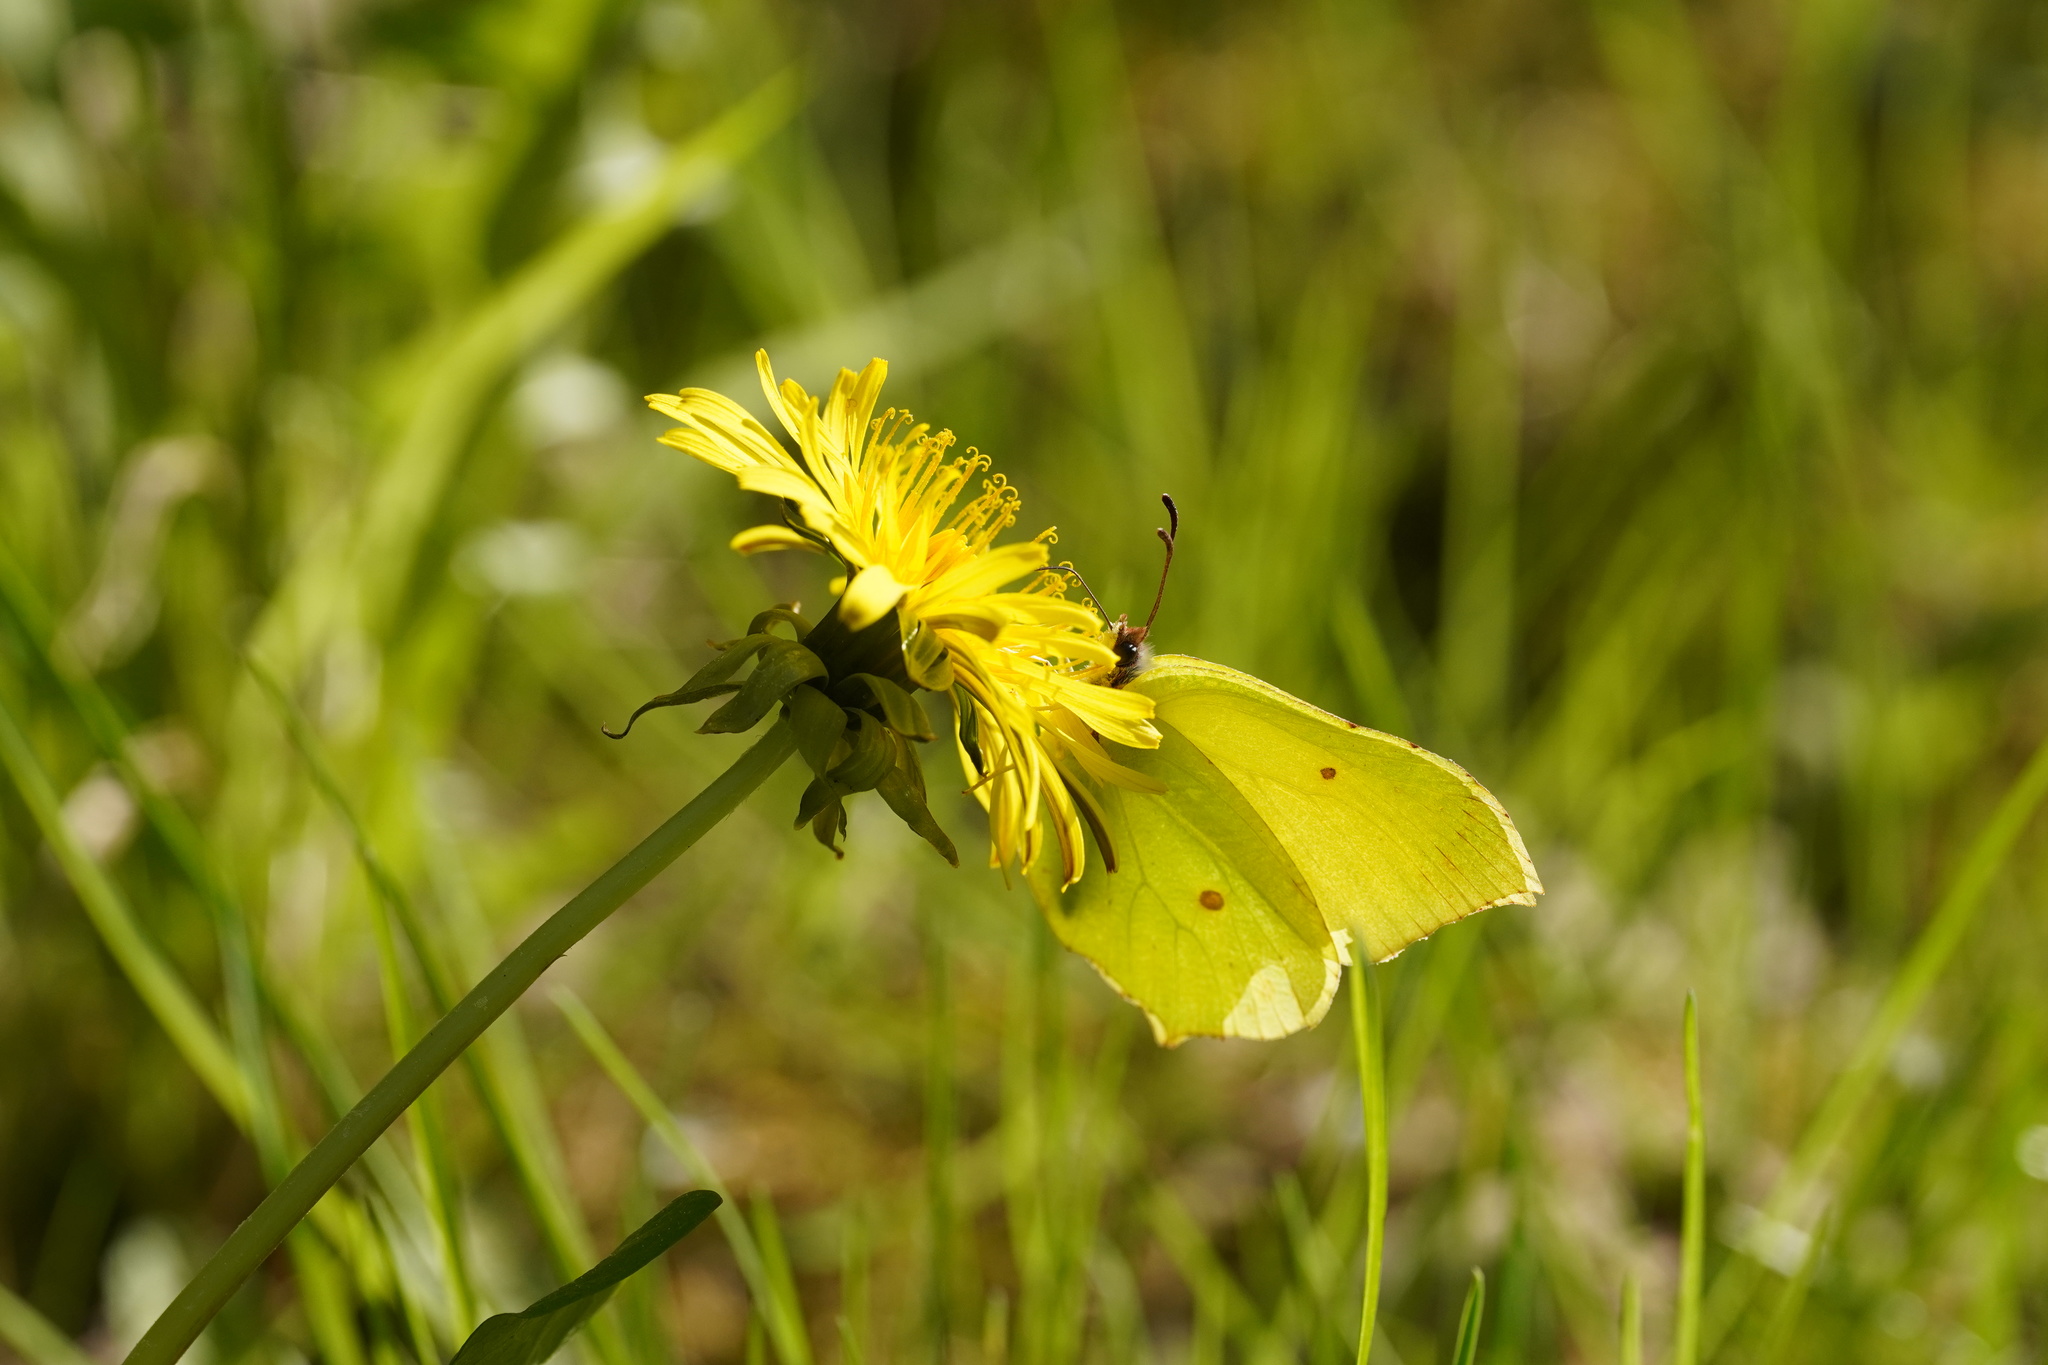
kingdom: Animalia
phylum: Arthropoda
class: Insecta
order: Lepidoptera
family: Pieridae
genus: Gonepteryx
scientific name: Gonepteryx rhamni
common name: Brimstone
